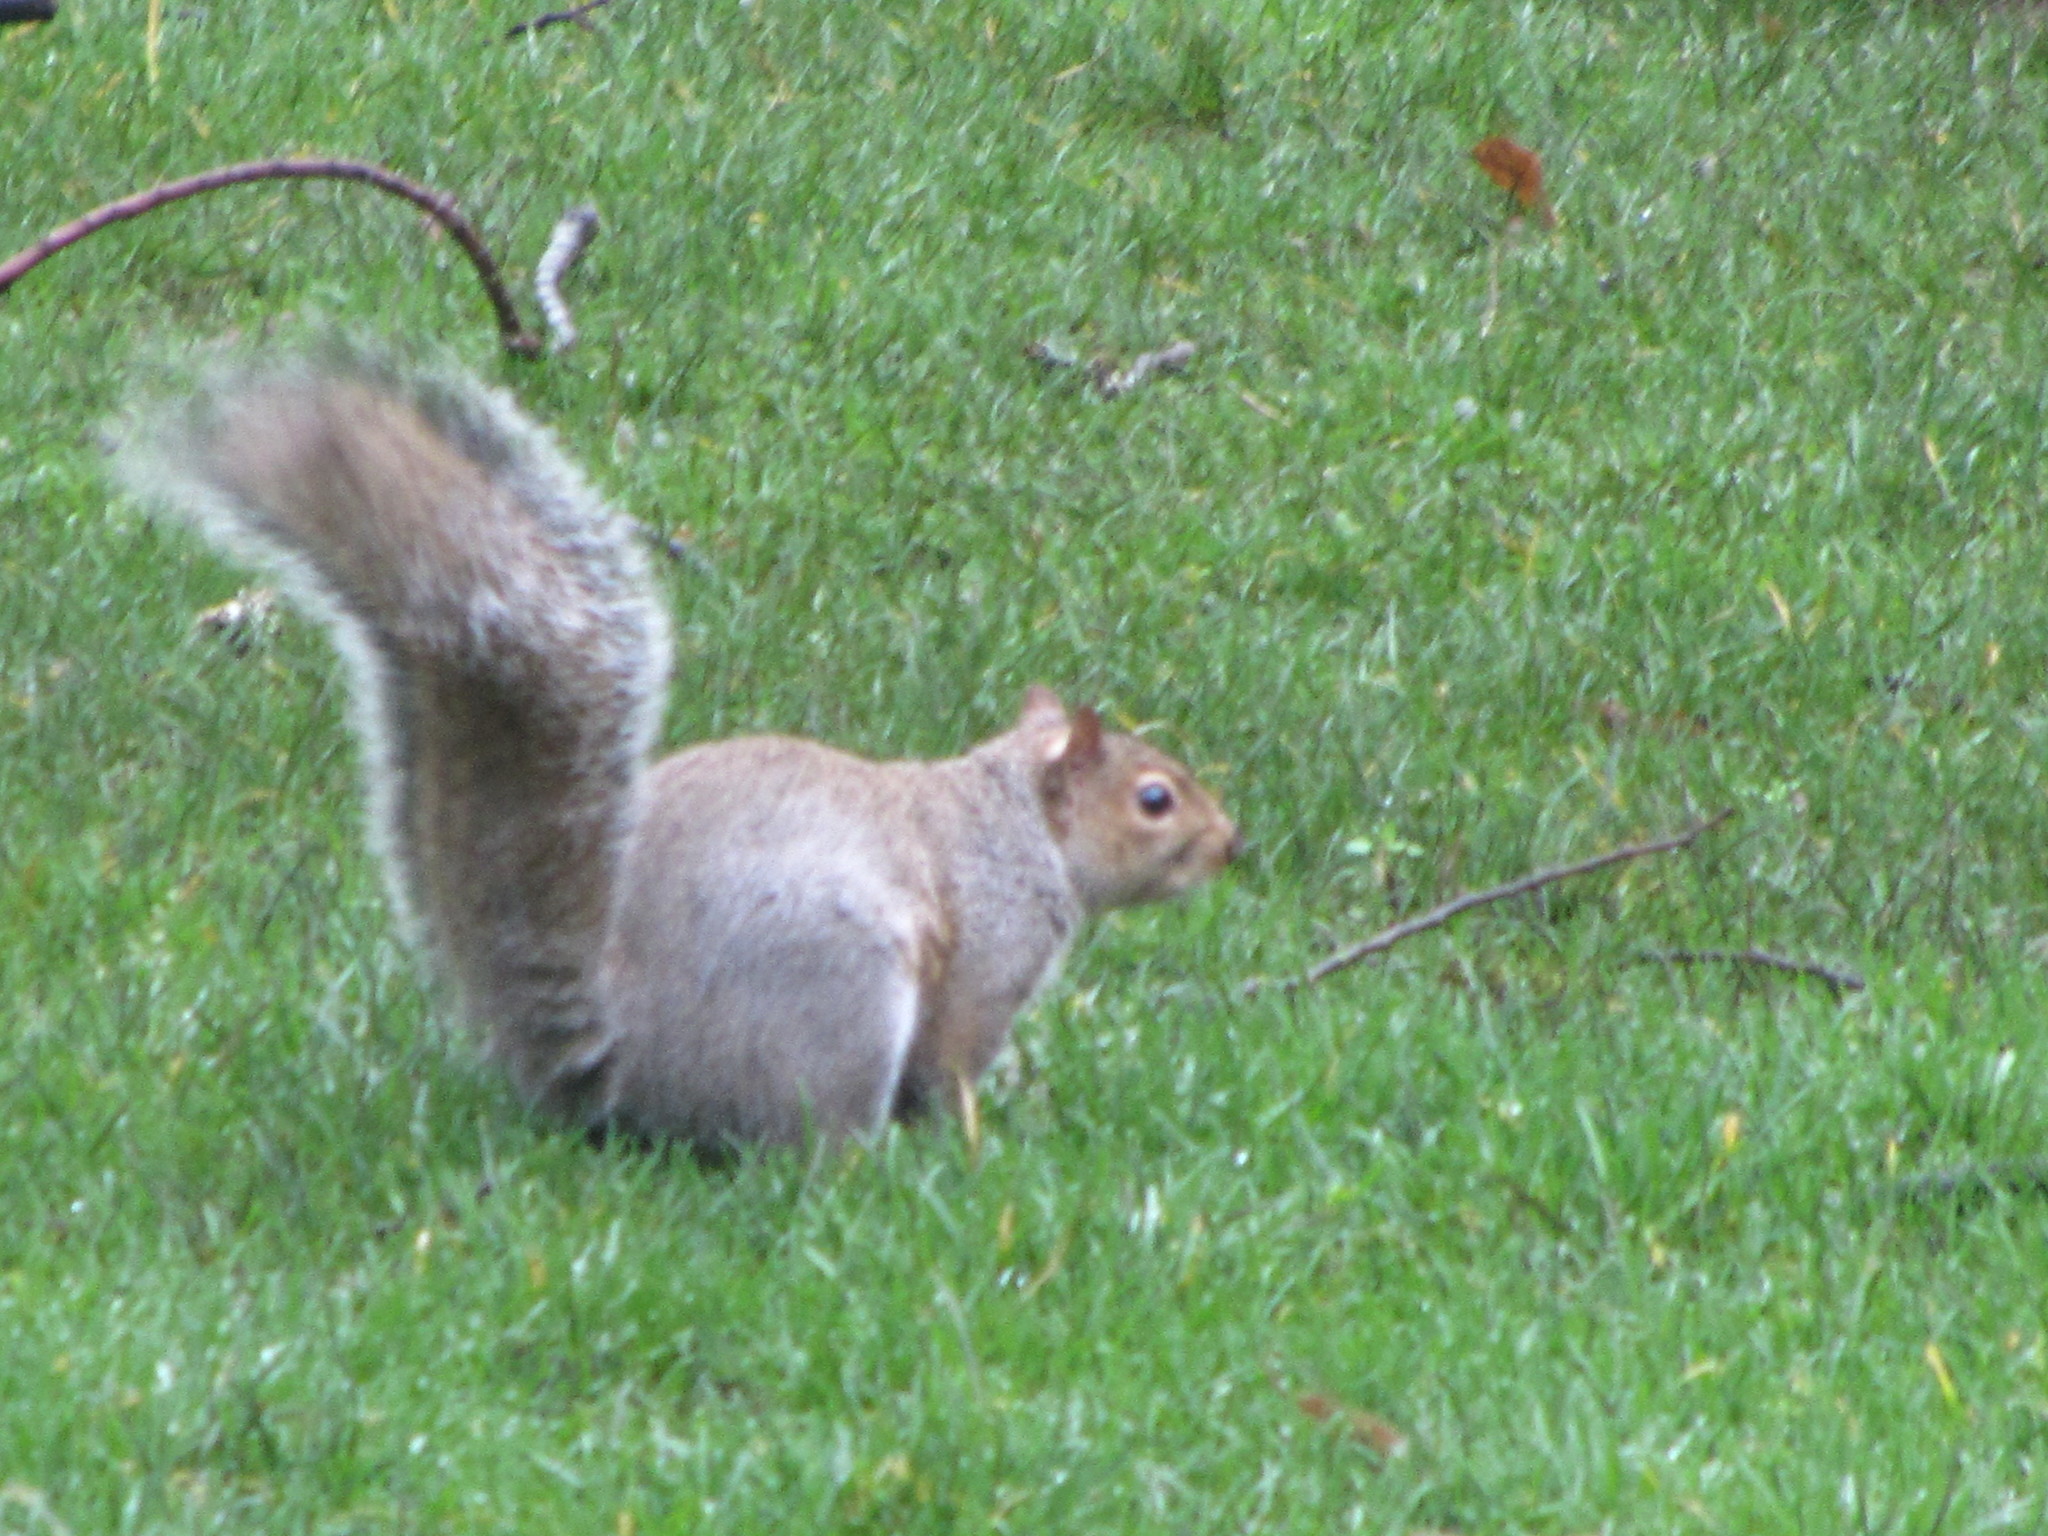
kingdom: Animalia
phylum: Chordata
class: Mammalia
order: Rodentia
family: Sciuridae
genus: Sciurus
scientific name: Sciurus carolinensis
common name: Eastern gray squirrel
